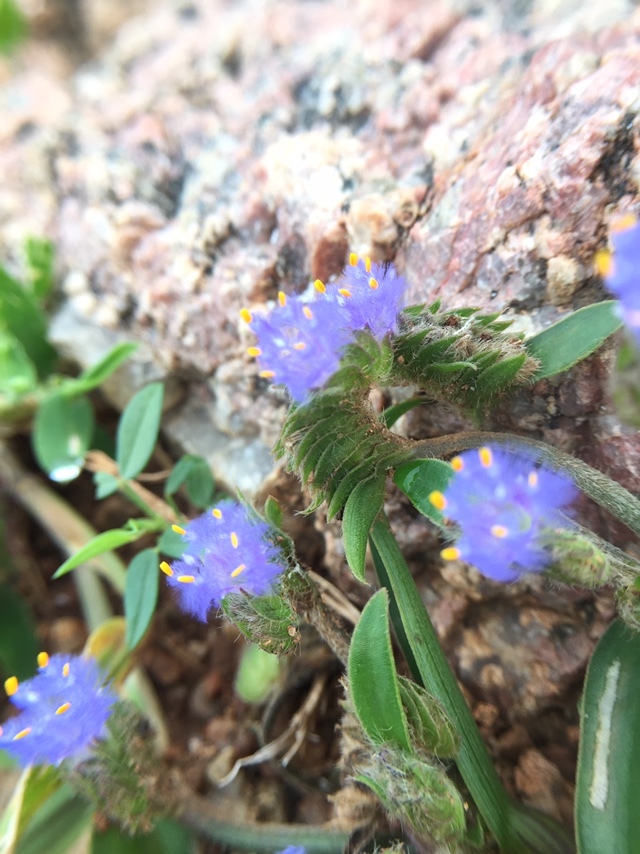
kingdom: Plantae
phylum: Tracheophyta
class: Liliopsida
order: Commelinales
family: Commelinaceae
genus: Cyanotis
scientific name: Cyanotis adscendens
